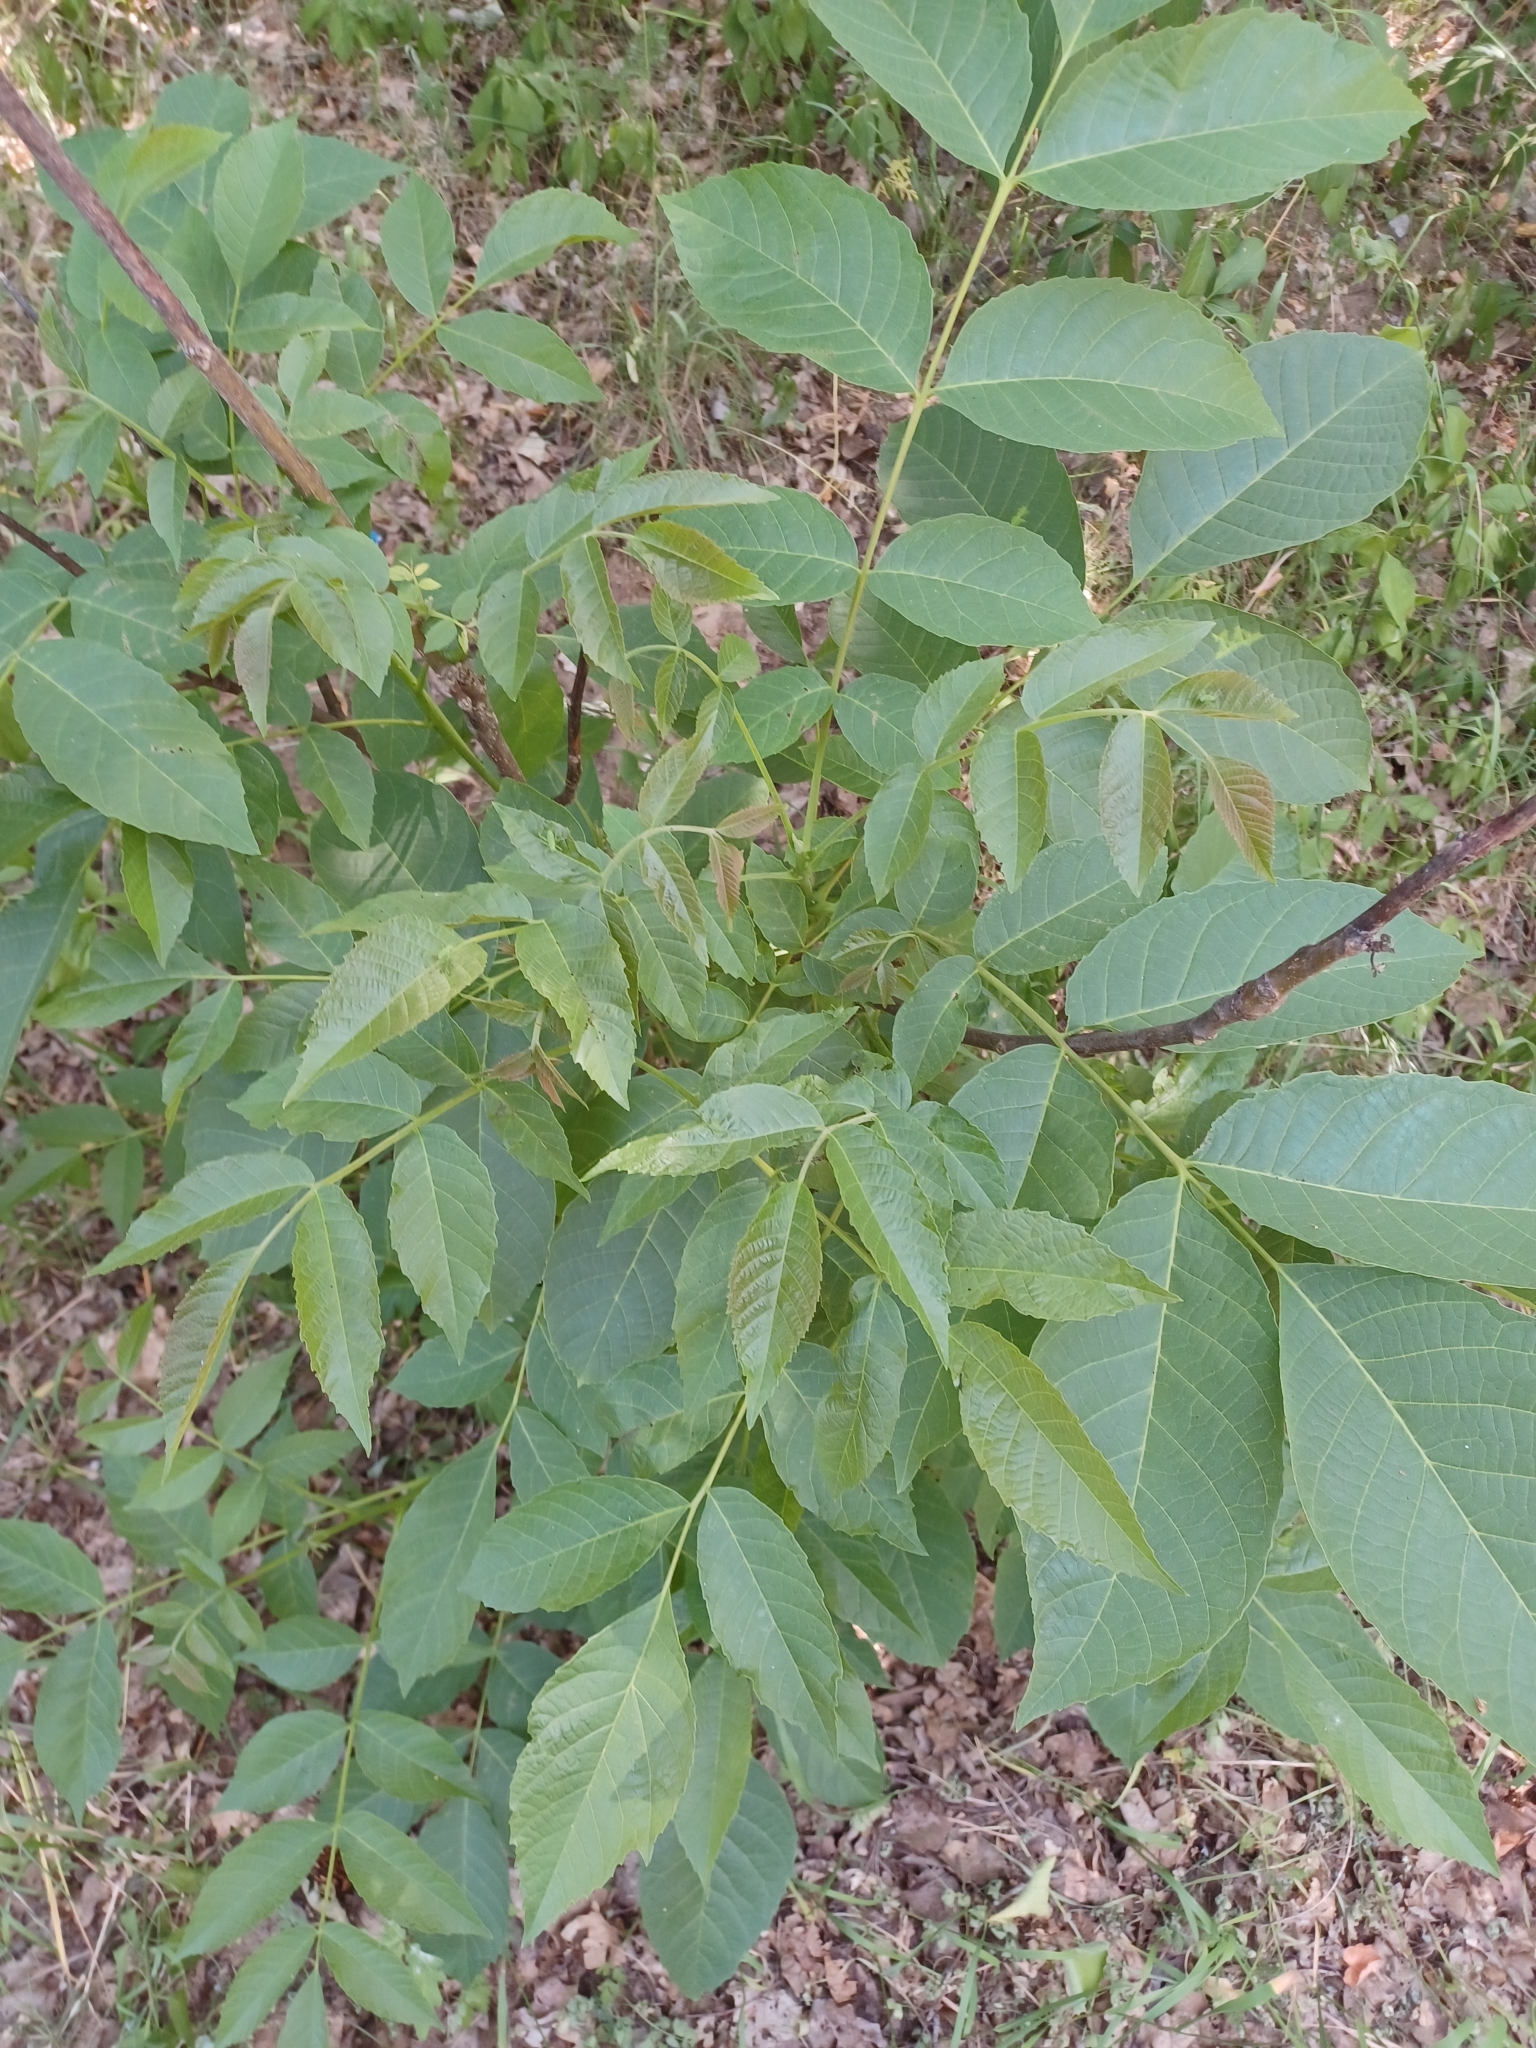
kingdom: Plantae
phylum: Tracheophyta
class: Magnoliopsida
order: Fagales
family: Juglandaceae
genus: Juglans
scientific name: Juglans regia
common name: Walnut
